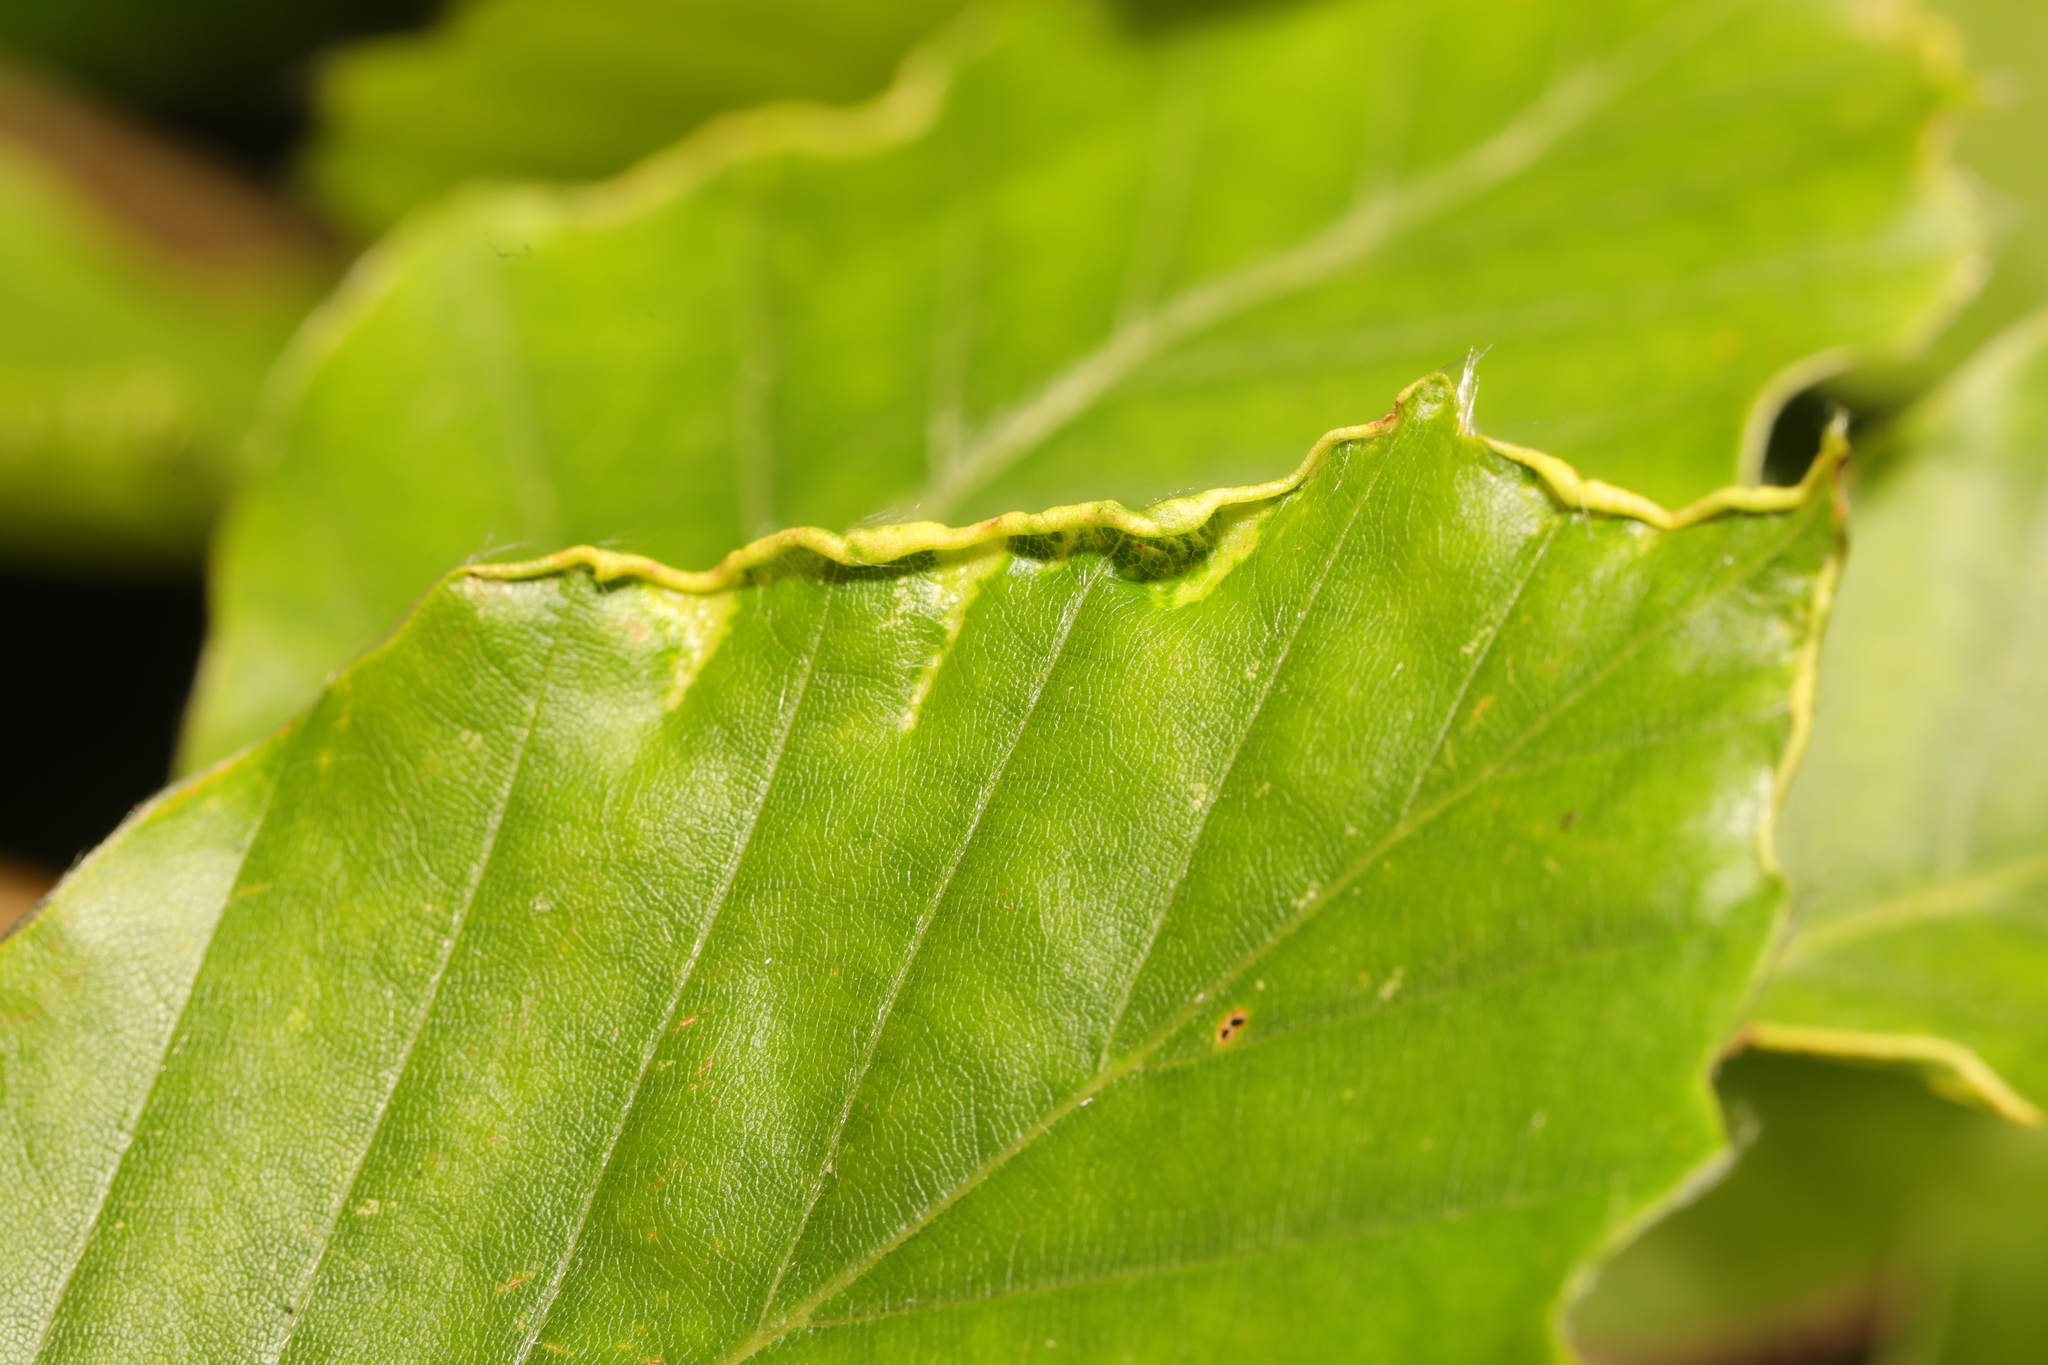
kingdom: Animalia
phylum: Arthropoda
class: Arachnida
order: Trombidiformes
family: Eriophyidae
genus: Acalitus
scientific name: Acalitus stenaspis
